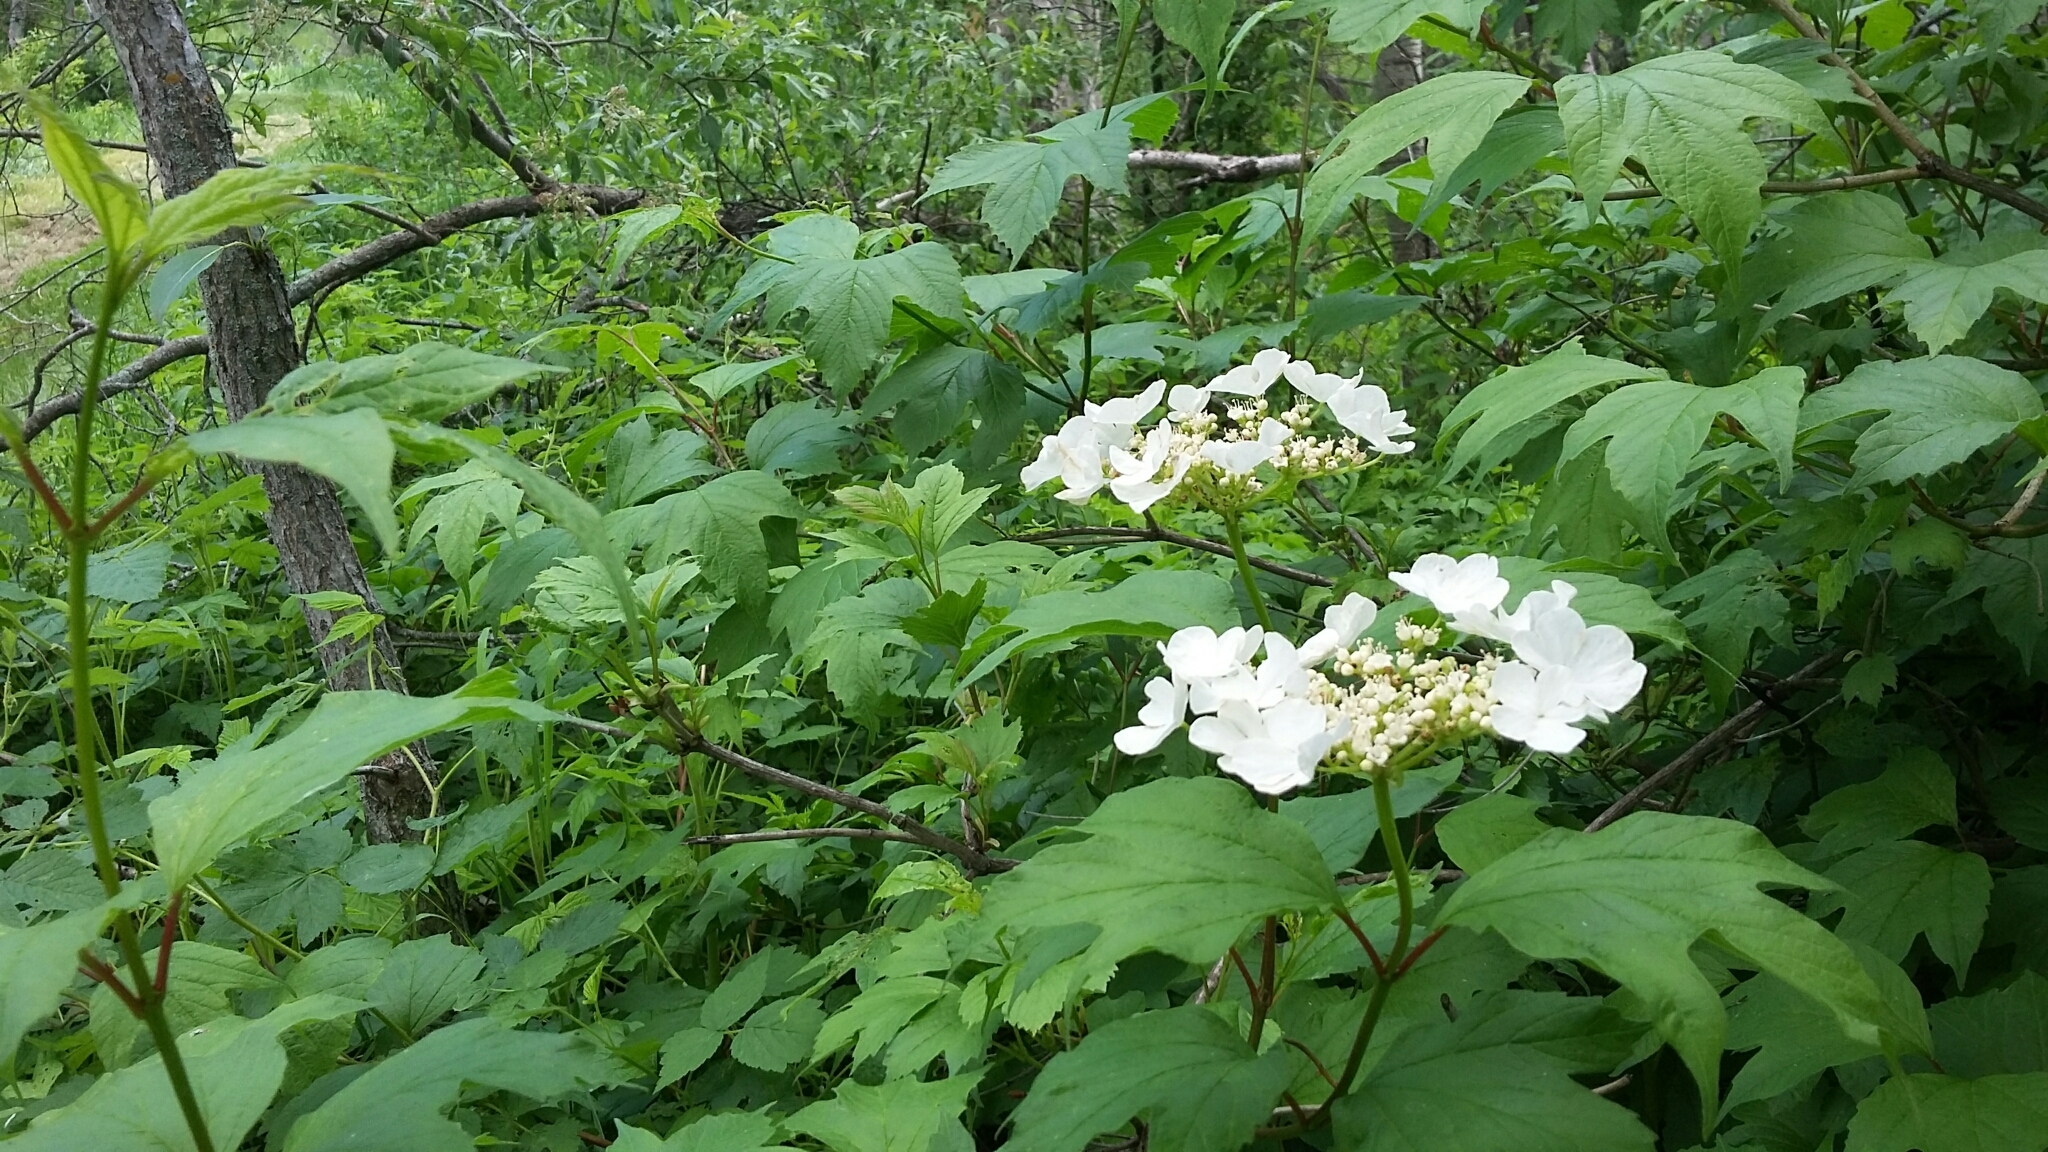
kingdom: Plantae
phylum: Tracheophyta
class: Magnoliopsida
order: Dipsacales
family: Viburnaceae
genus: Viburnum
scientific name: Viburnum opulus
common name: Guelder-rose
